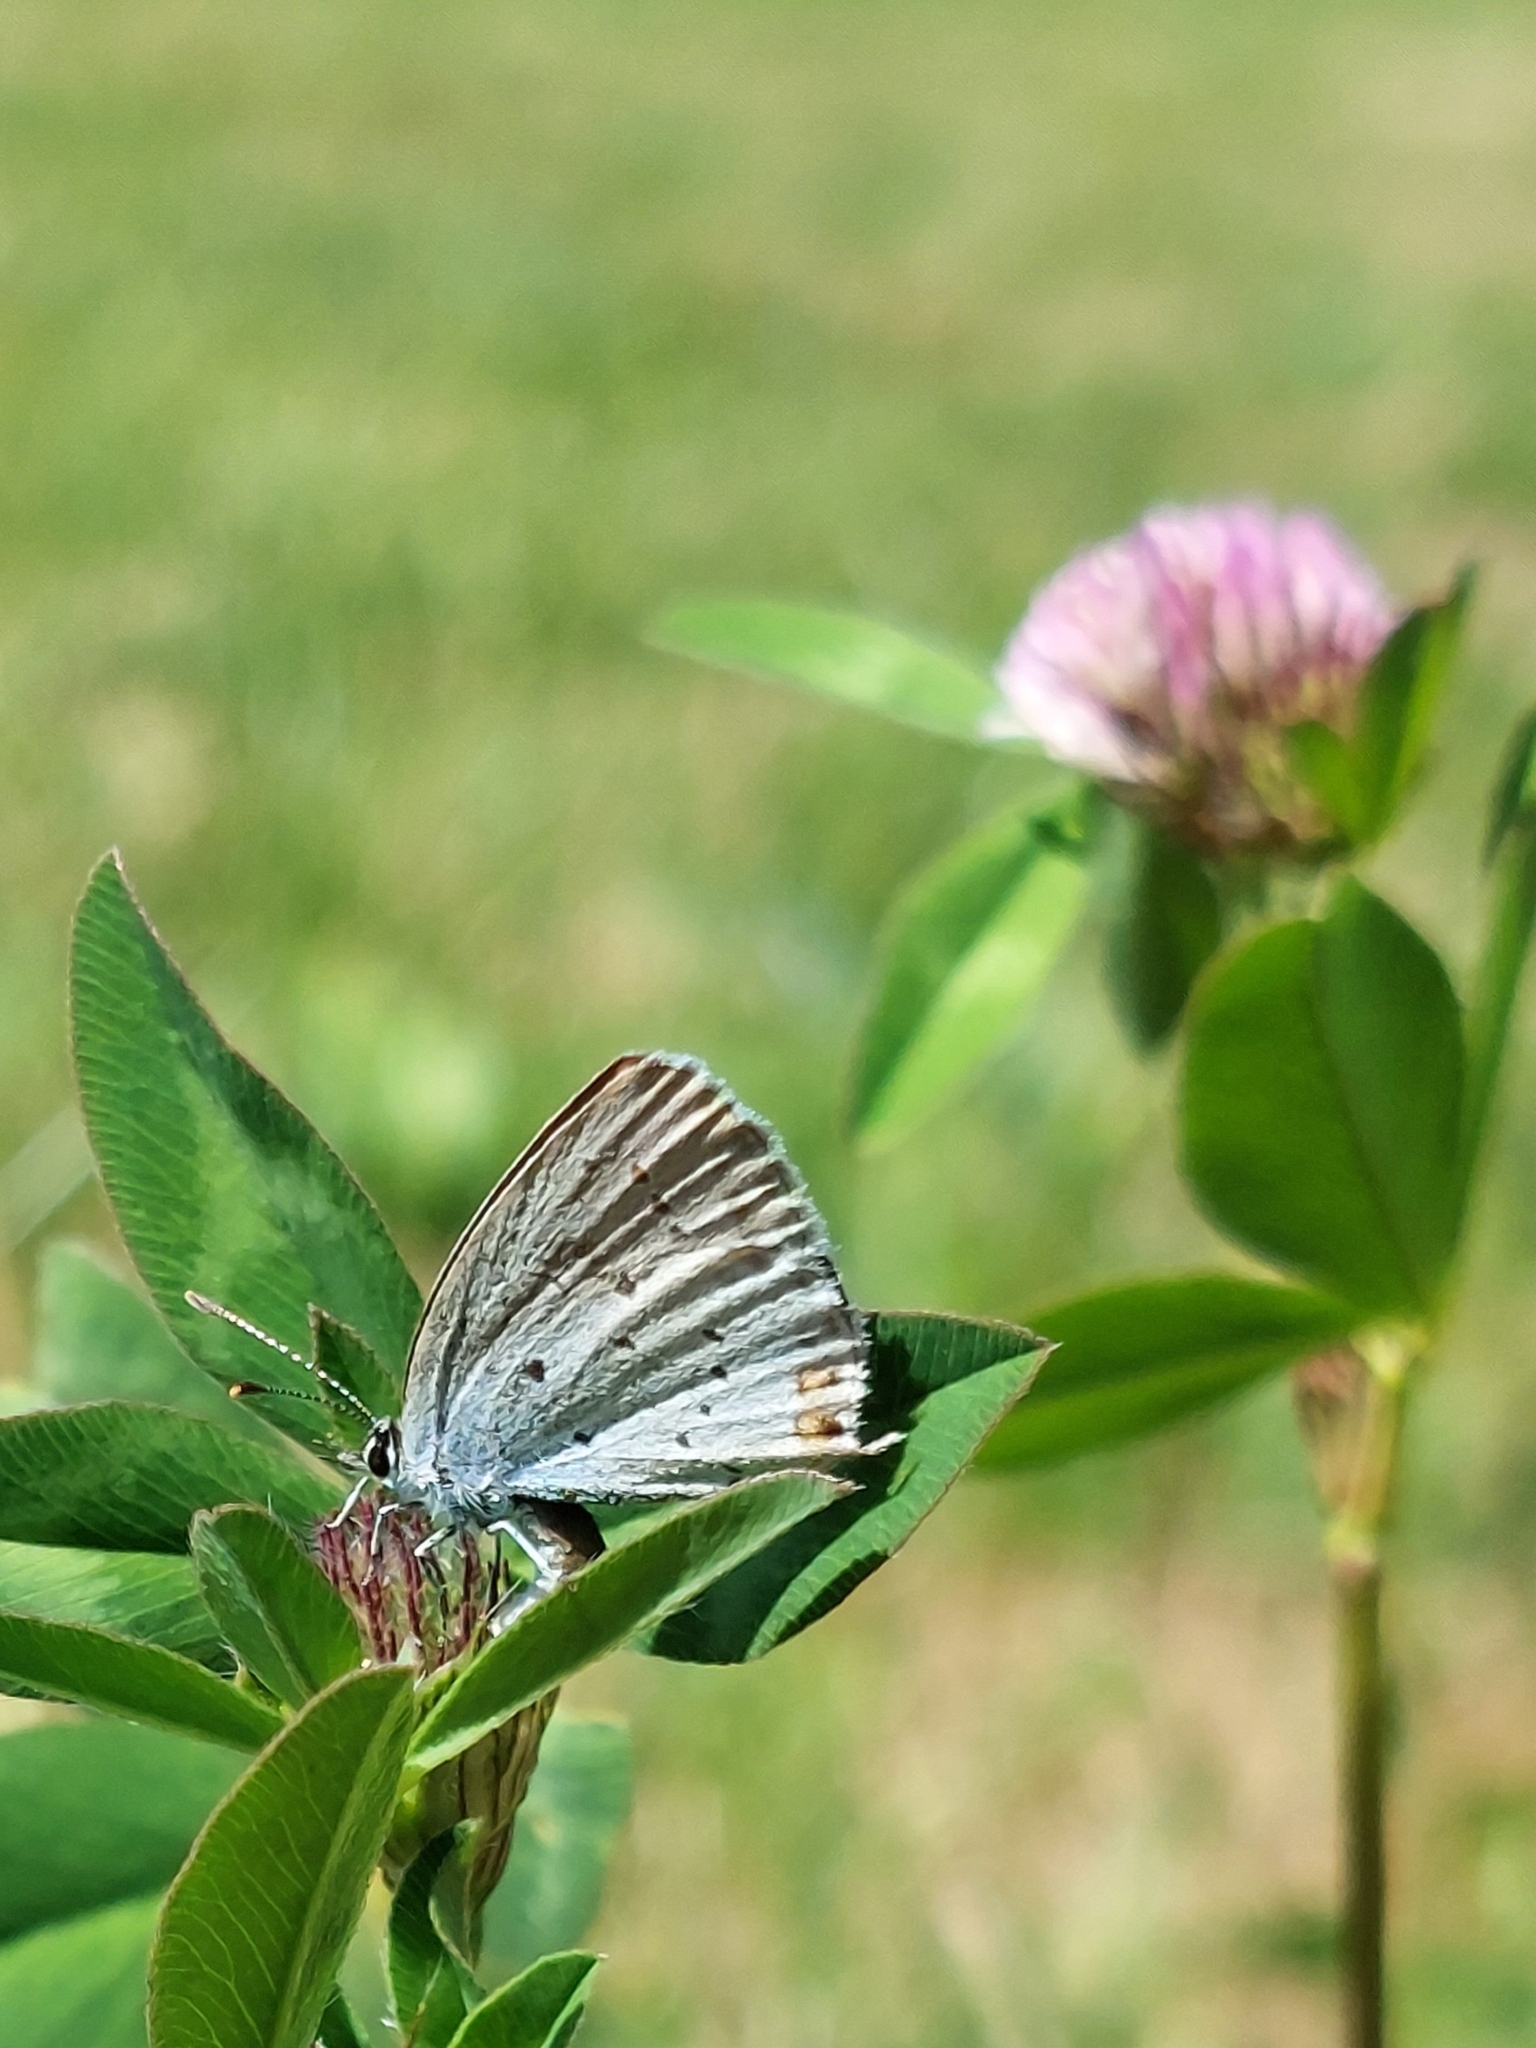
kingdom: Animalia
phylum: Arthropoda
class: Insecta
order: Lepidoptera
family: Lycaenidae
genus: Elkalyce
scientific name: Elkalyce argiades
